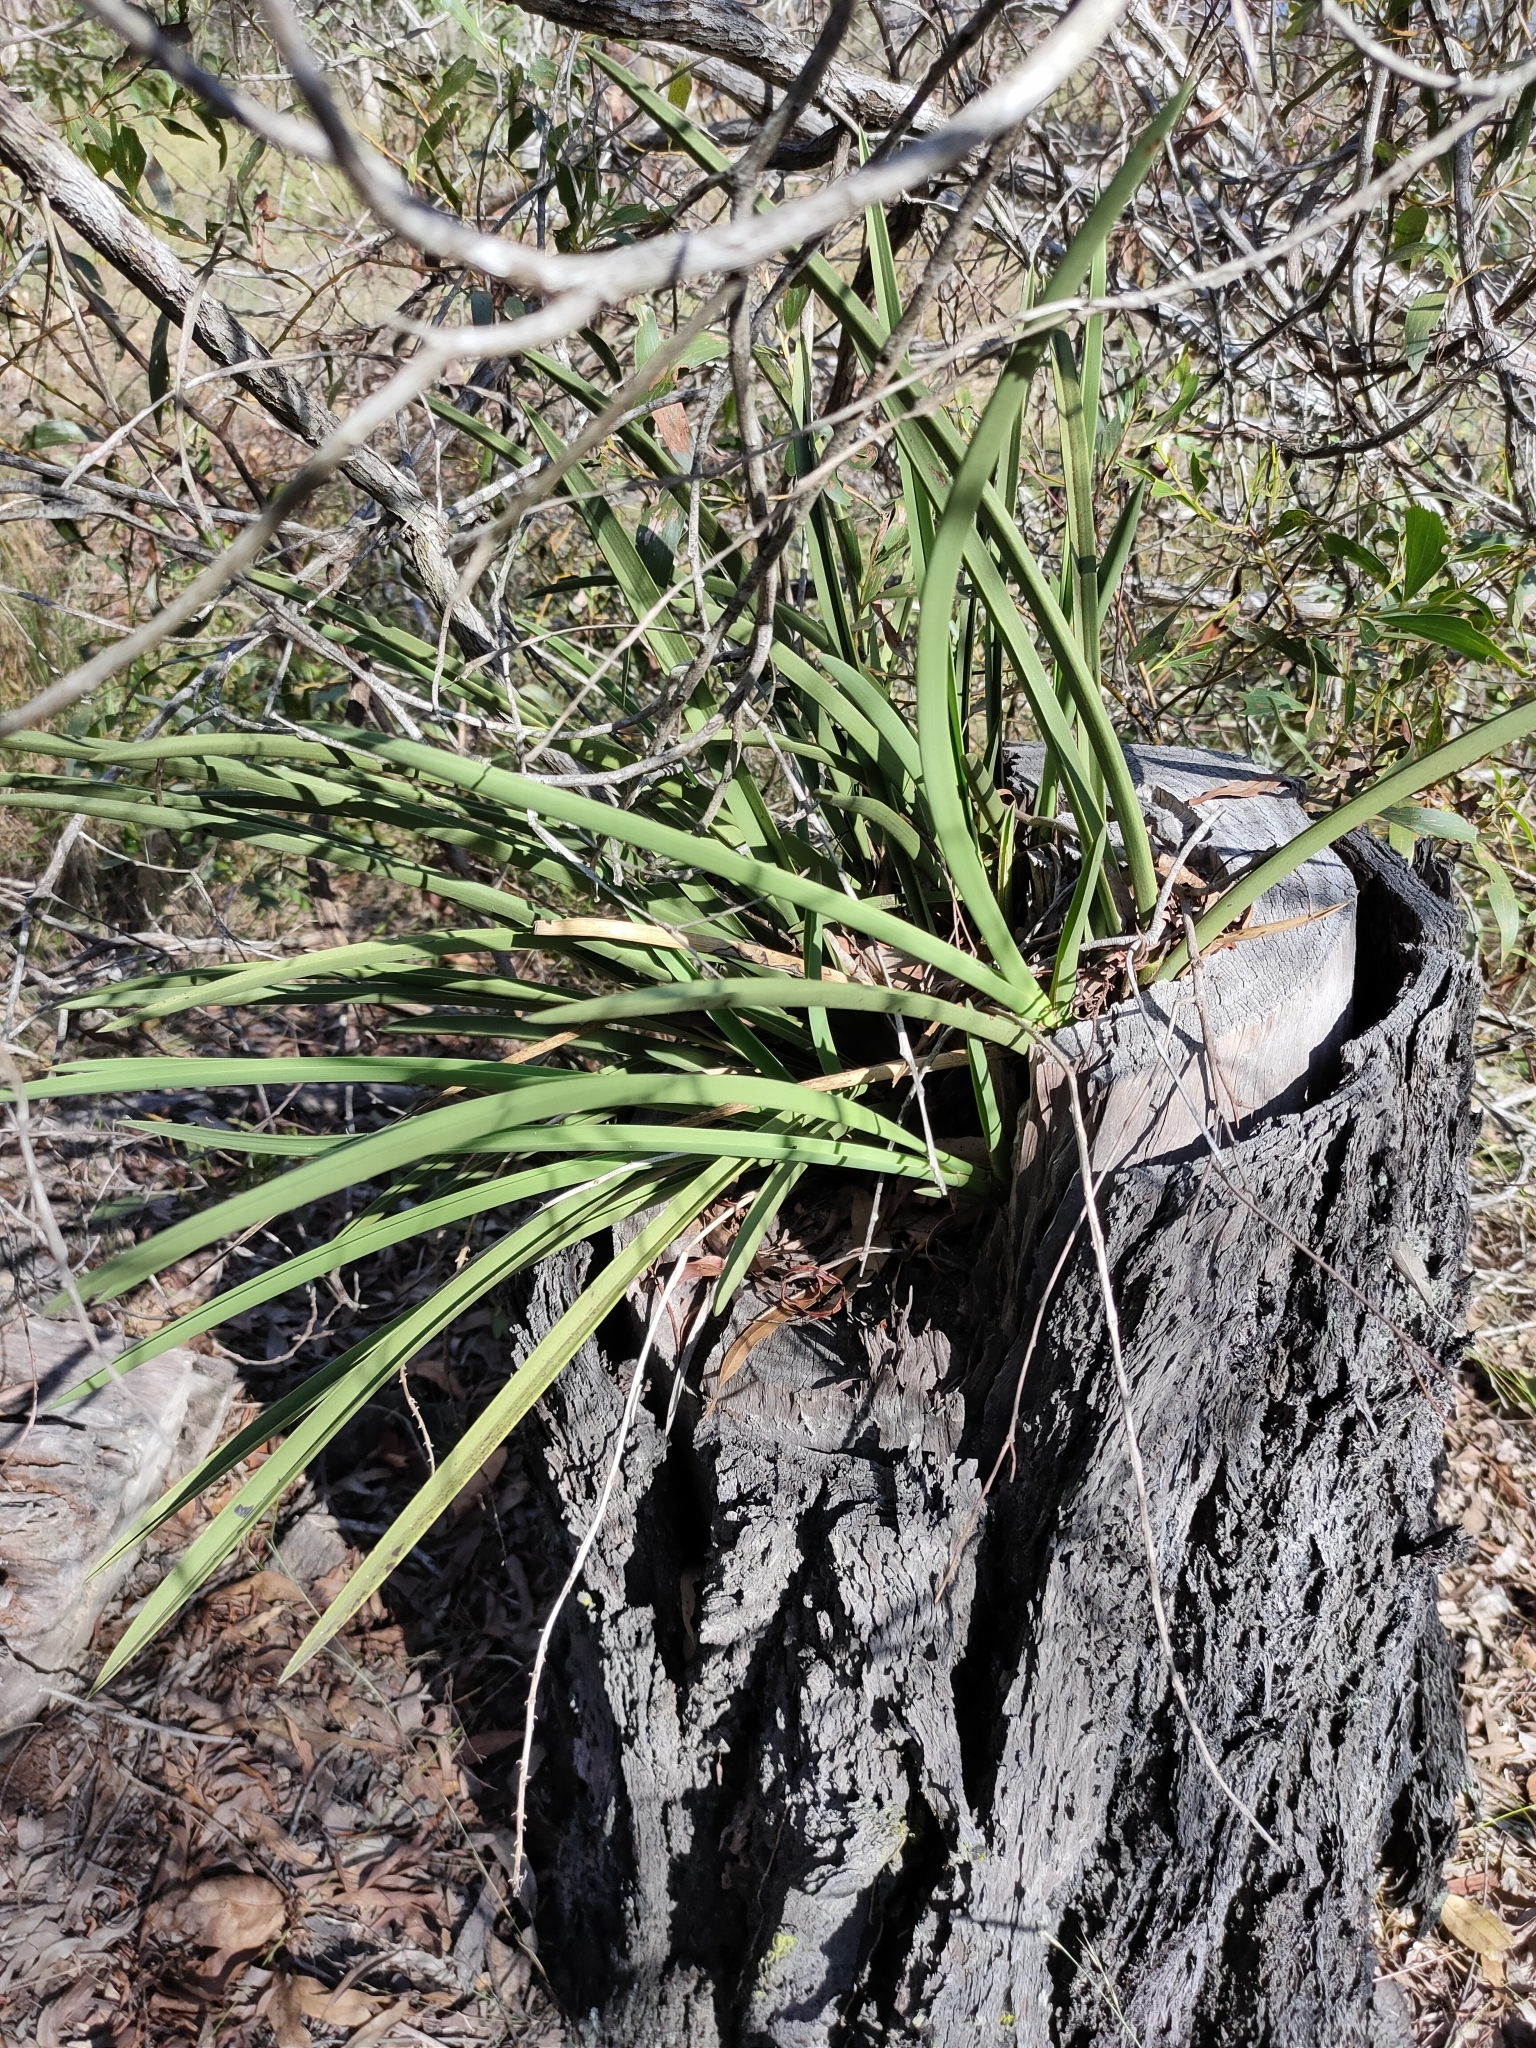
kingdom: Plantae
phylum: Tracheophyta
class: Liliopsida
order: Asparagales
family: Orchidaceae
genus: Cymbidium
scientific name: Cymbidium canaliculatum
